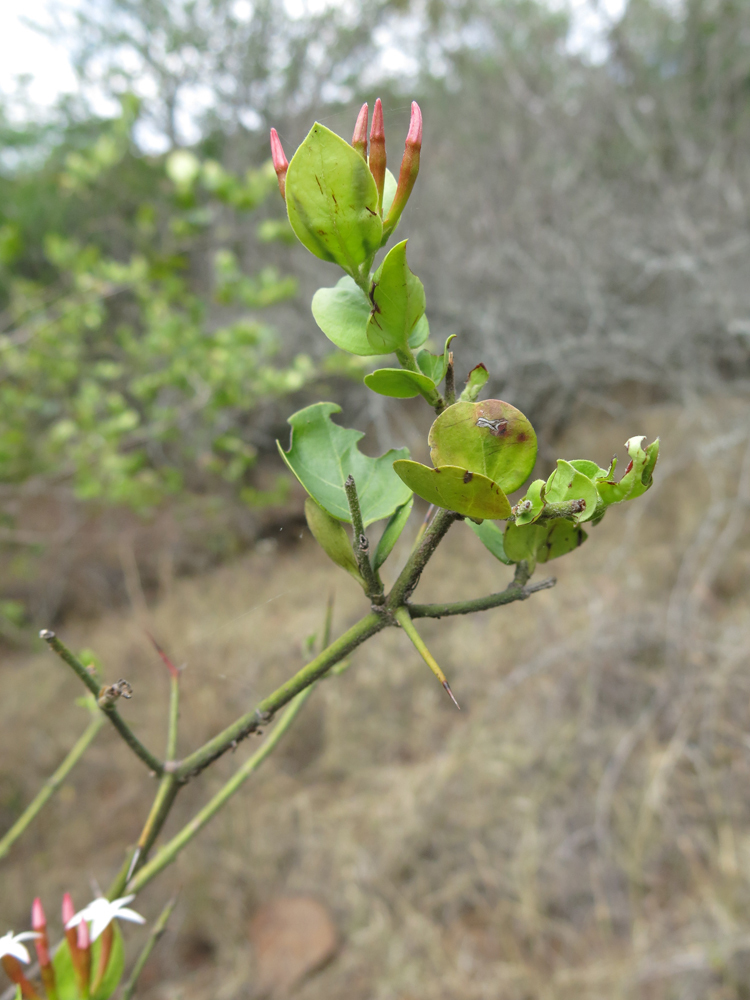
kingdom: Plantae
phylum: Tracheophyta
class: Magnoliopsida
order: Gentianales
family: Apocynaceae
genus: Carissa
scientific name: Carissa spinarum
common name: Egyptian carissa
